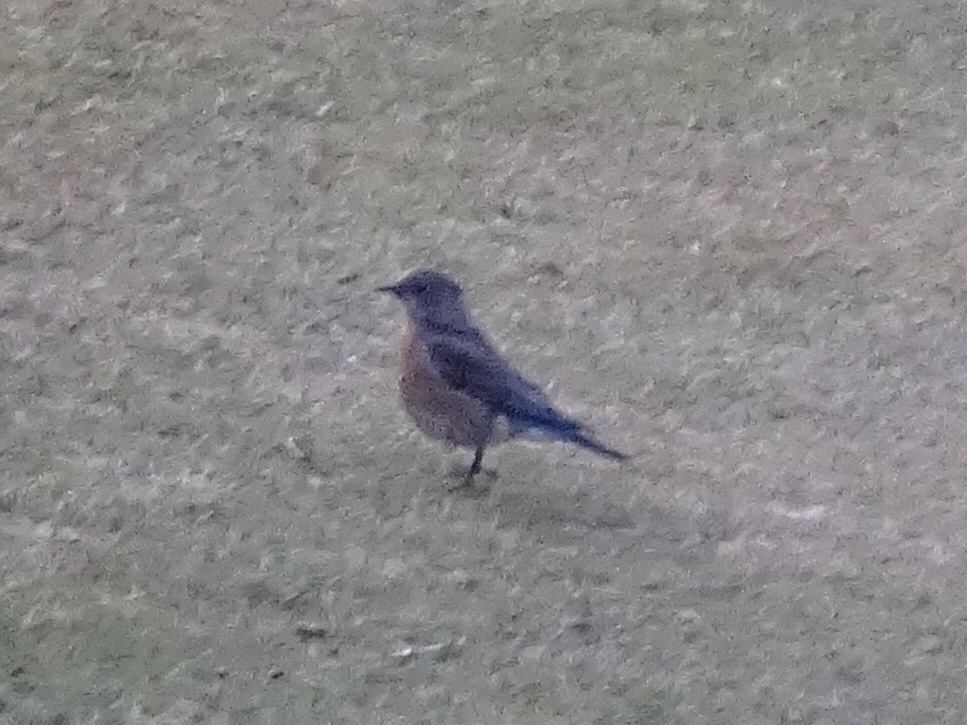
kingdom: Animalia
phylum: Chordata
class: Aves
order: Passeriformes
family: Turdidae
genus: Sialia
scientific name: Sialia mexicana
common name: Western bluebird
